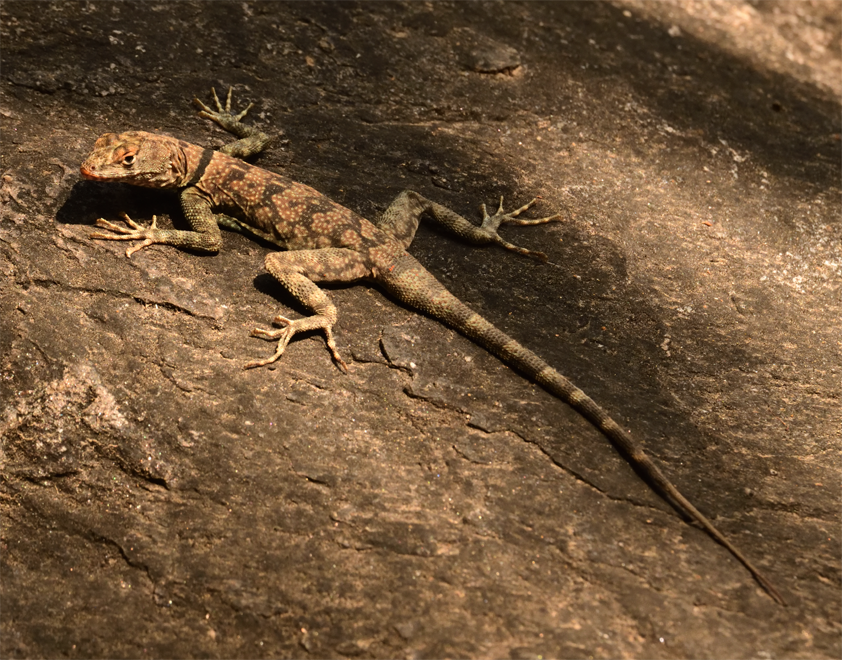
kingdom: Animalia
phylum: Chordata
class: Squamata
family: Phrynosomatidae
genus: Petrosaurus
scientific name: Petrosaurus mearnsi
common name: Banded rock lizard
